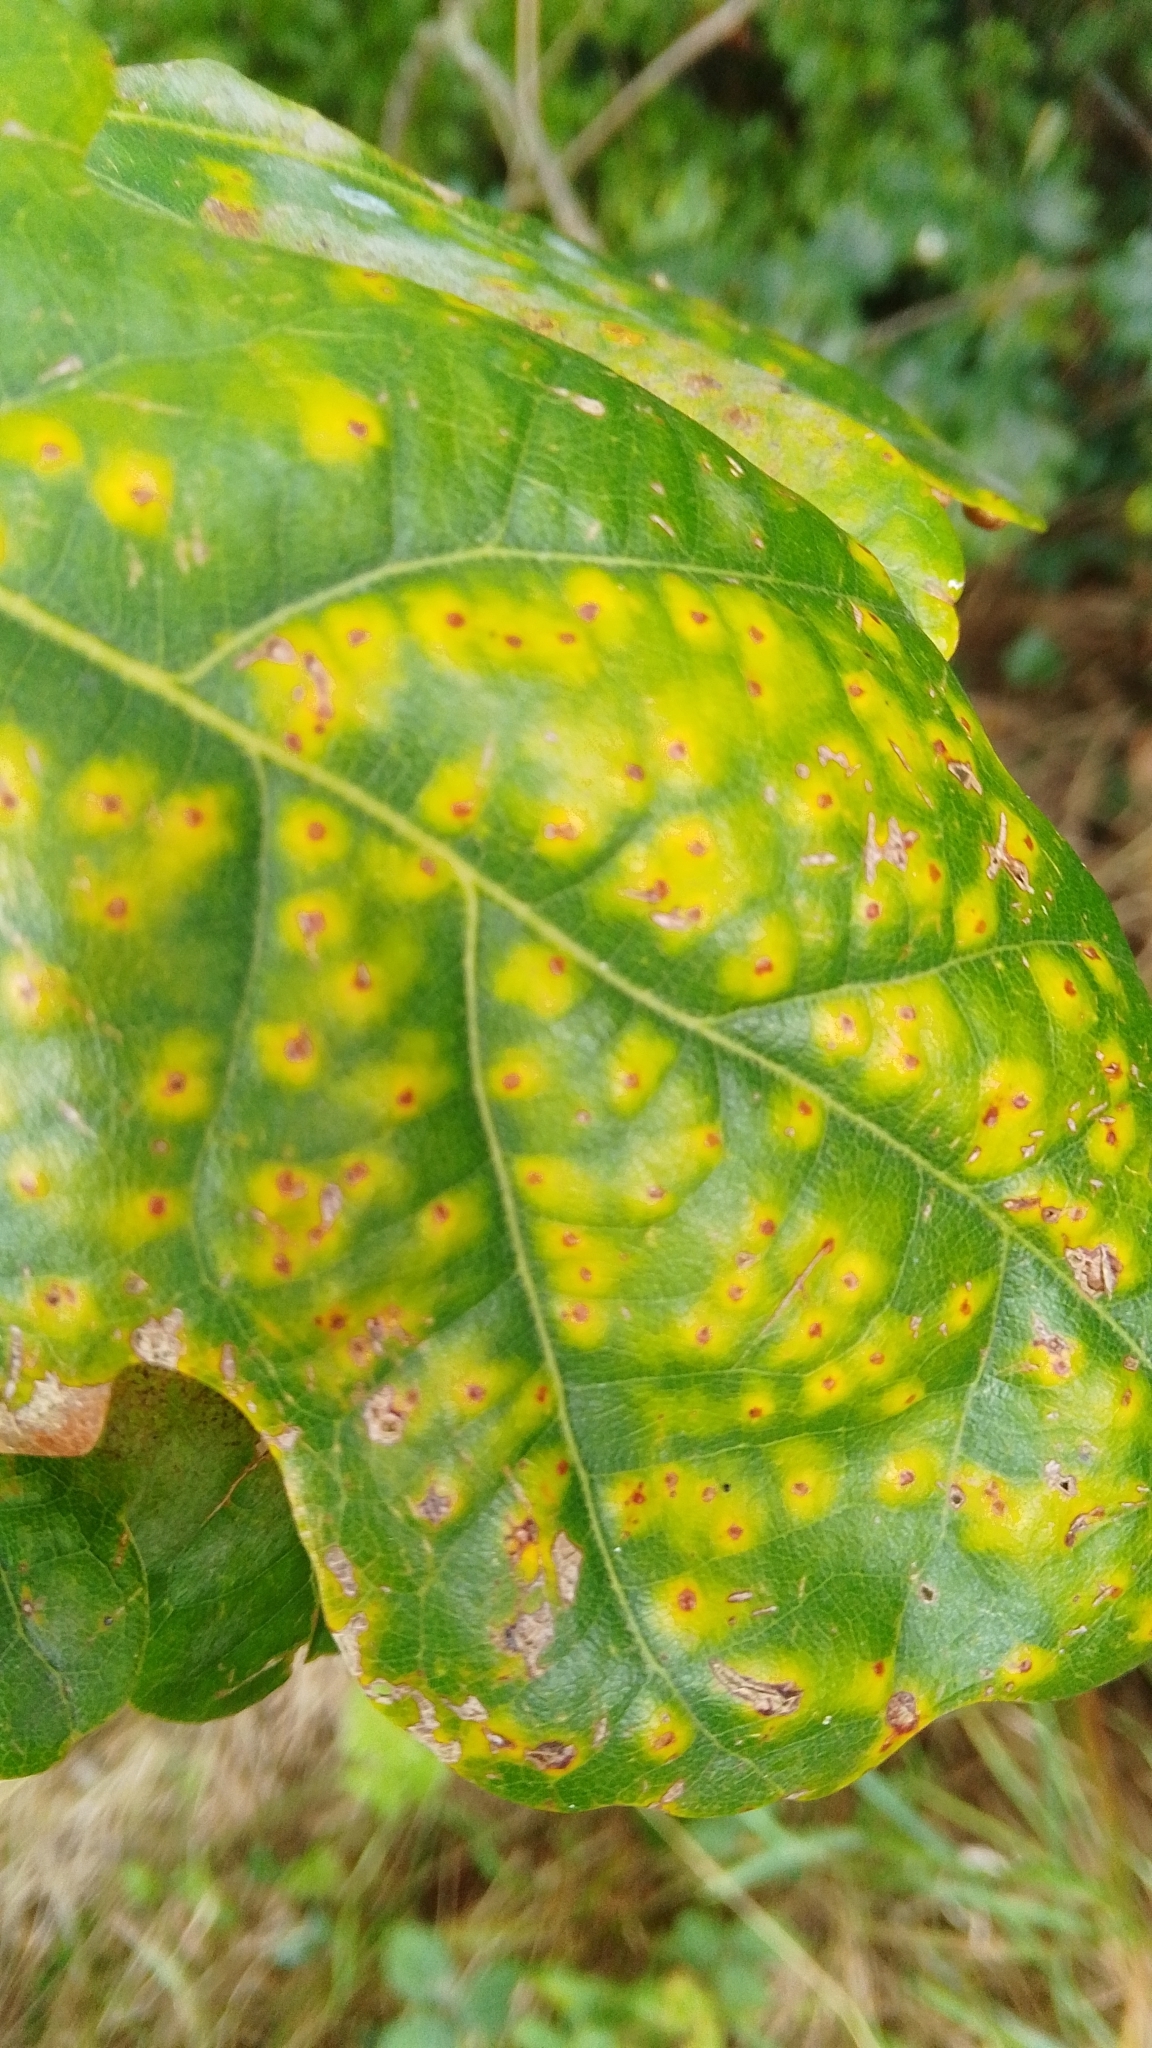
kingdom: Animalia
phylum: Arthropoda
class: Insecta
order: Hymenoptera
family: Cynipidae
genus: Neuroterus
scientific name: Neuroterus numismalis
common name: Silk-button spangle gall
